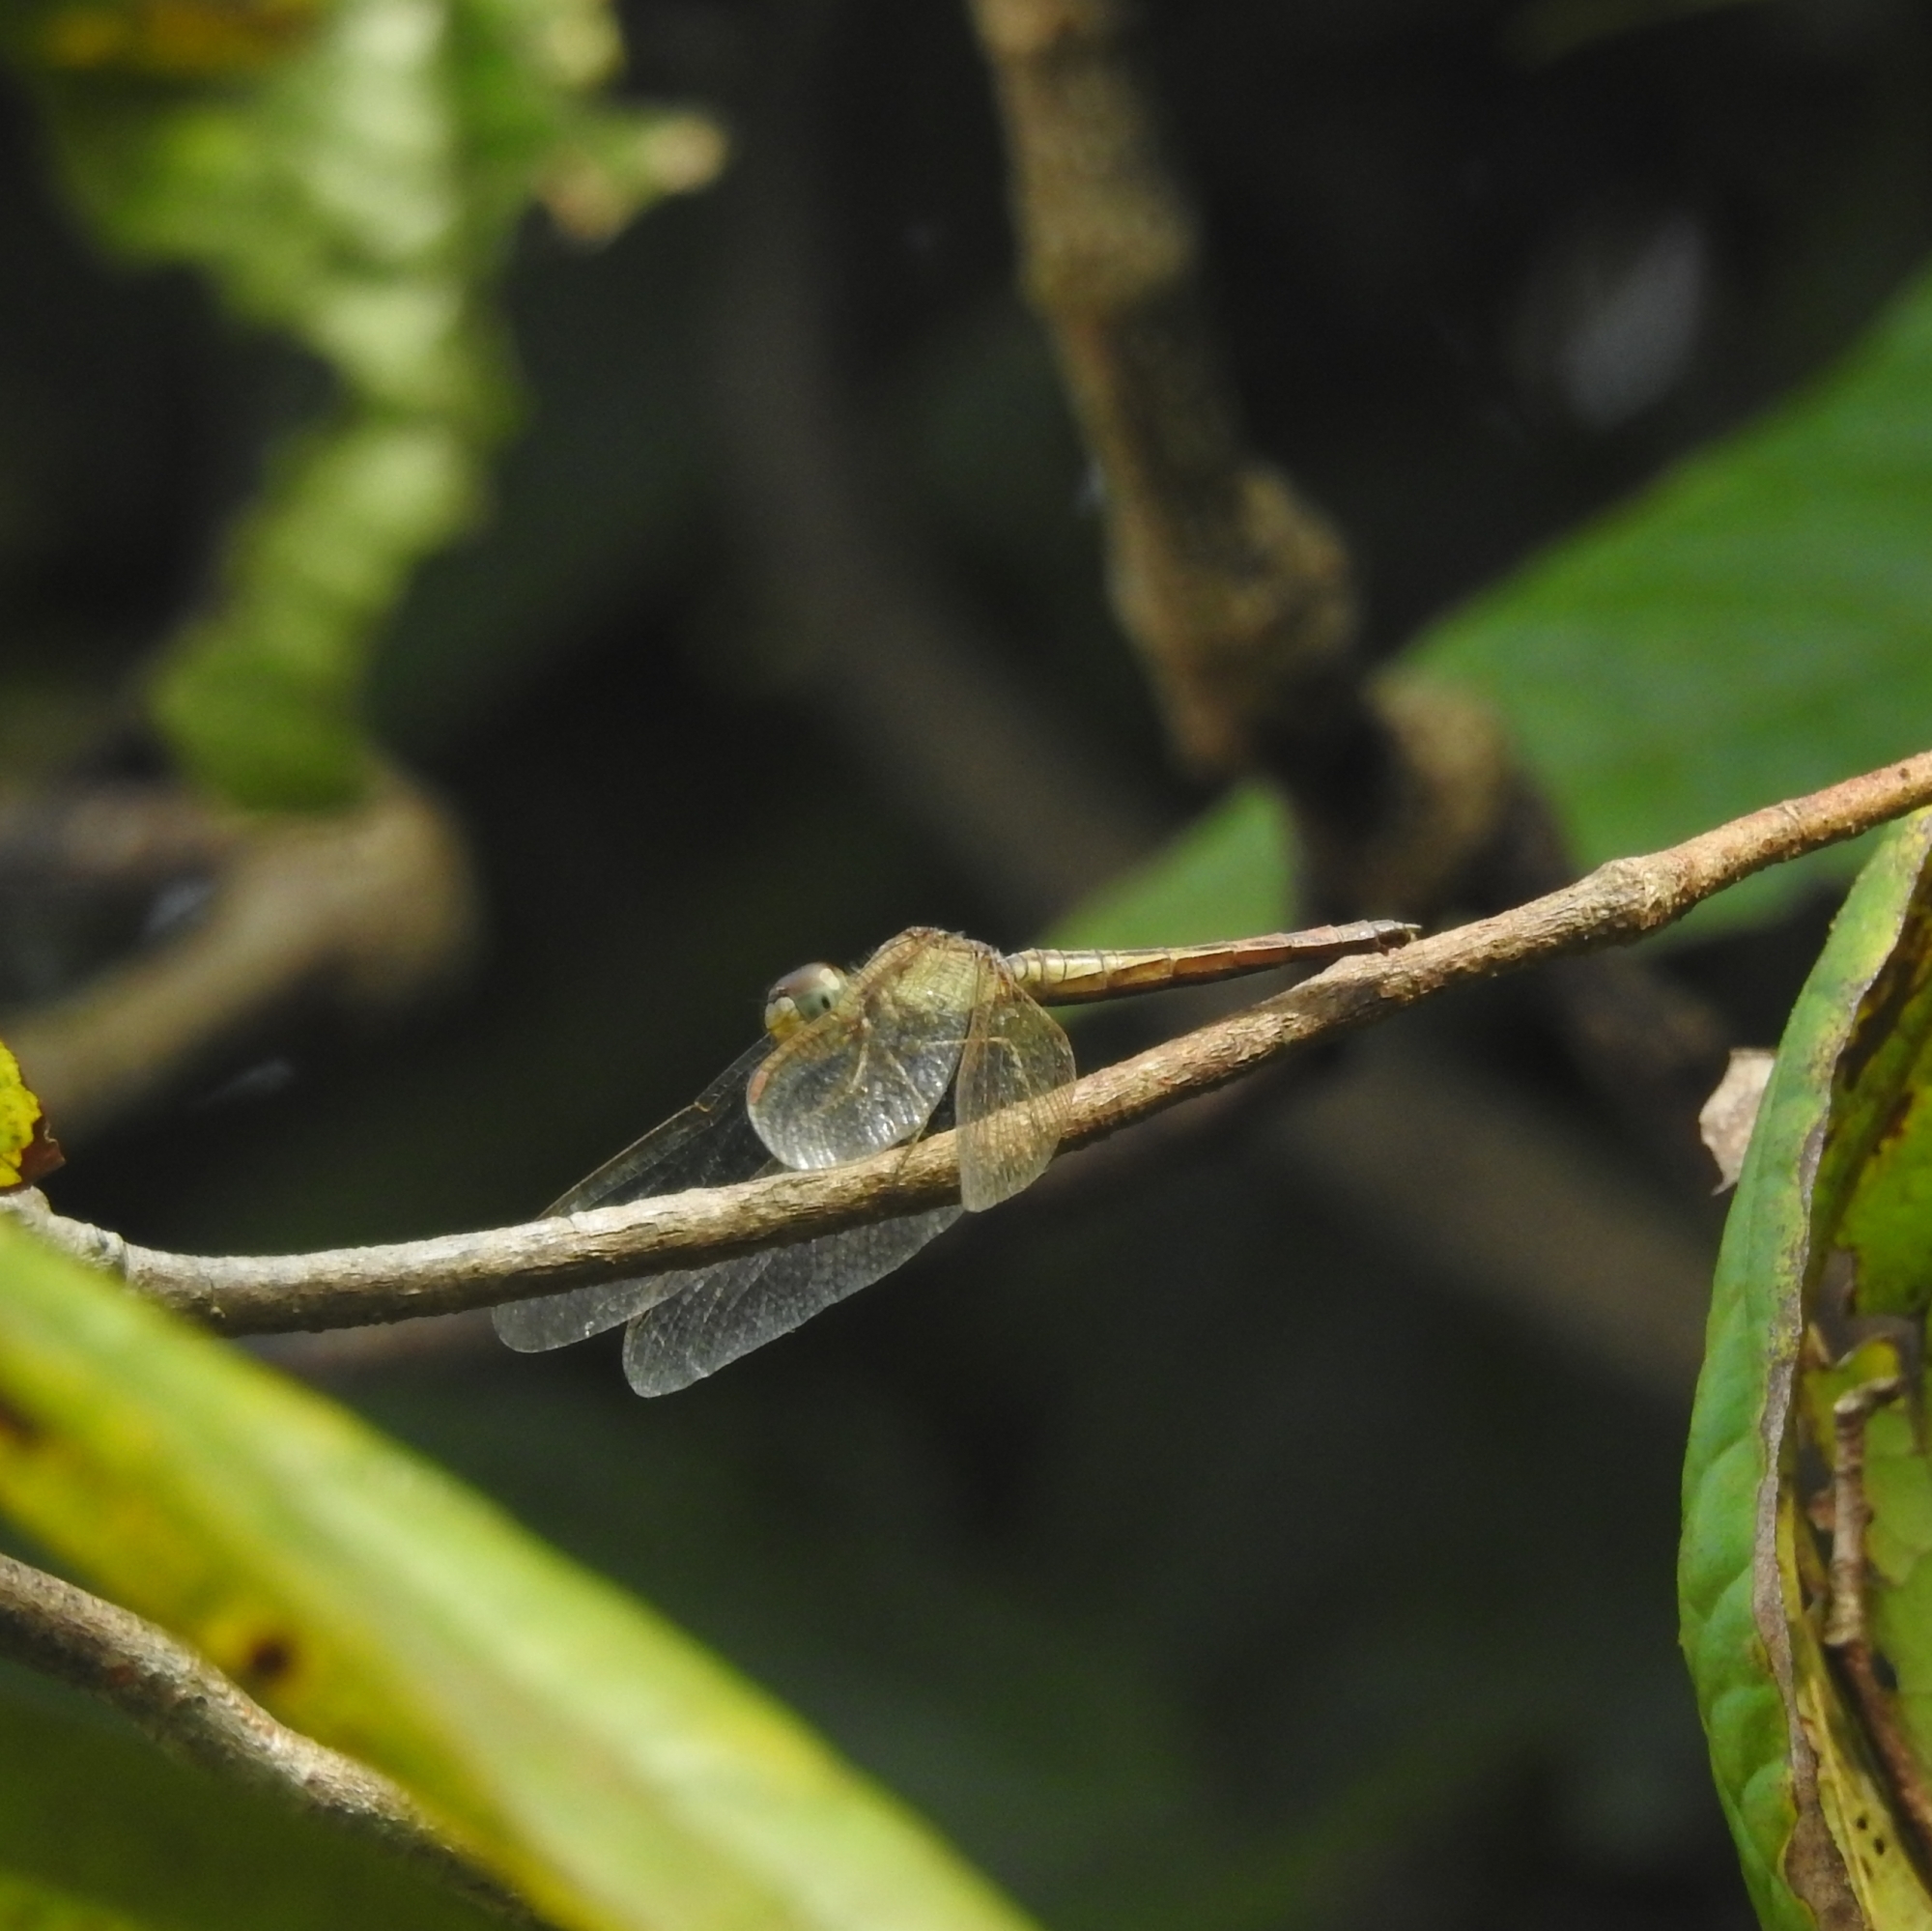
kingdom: Animalia
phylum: Arthropoda
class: Insecta
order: Odonata
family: Libellulidae
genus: Neurothemis
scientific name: Neurothemis intermedia
